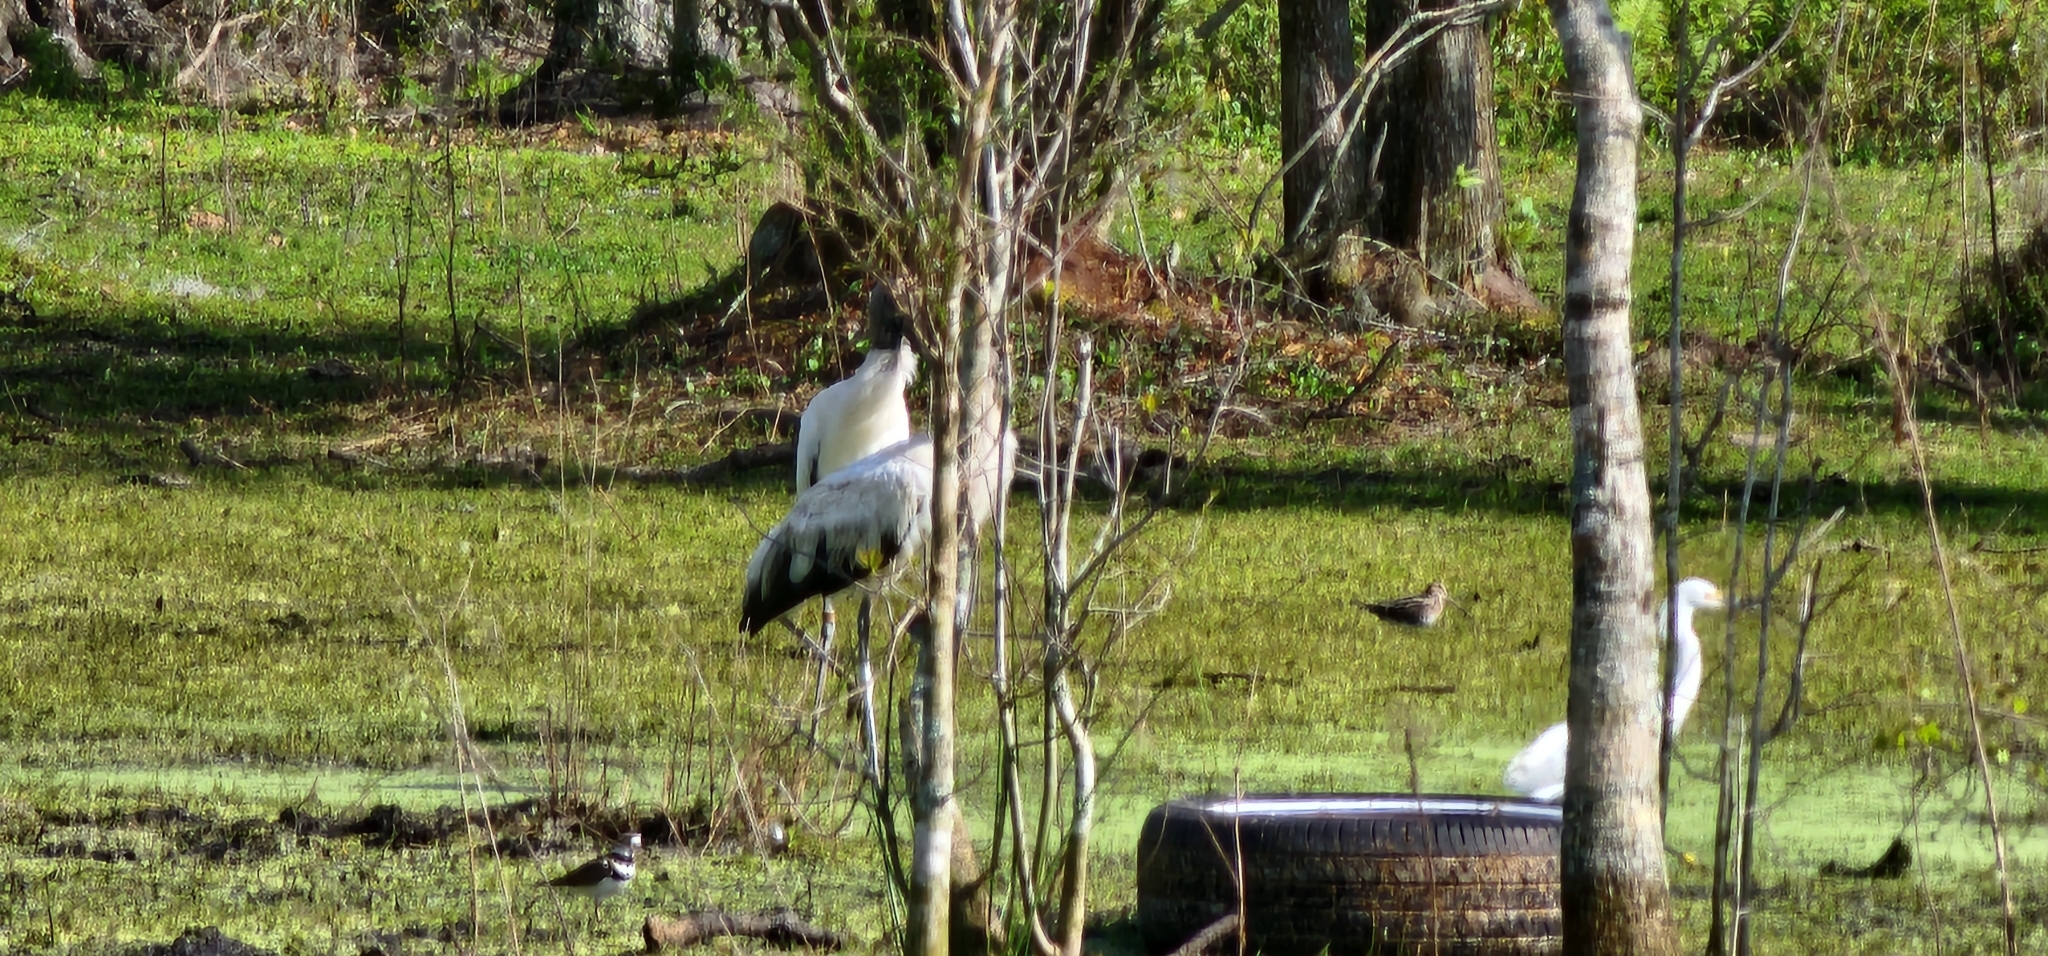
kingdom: Animalia
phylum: Chordata
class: Aves
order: Ciconiiformes
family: Ciconiidae
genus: Mycteria
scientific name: Mycteria americana
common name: Wood stork
